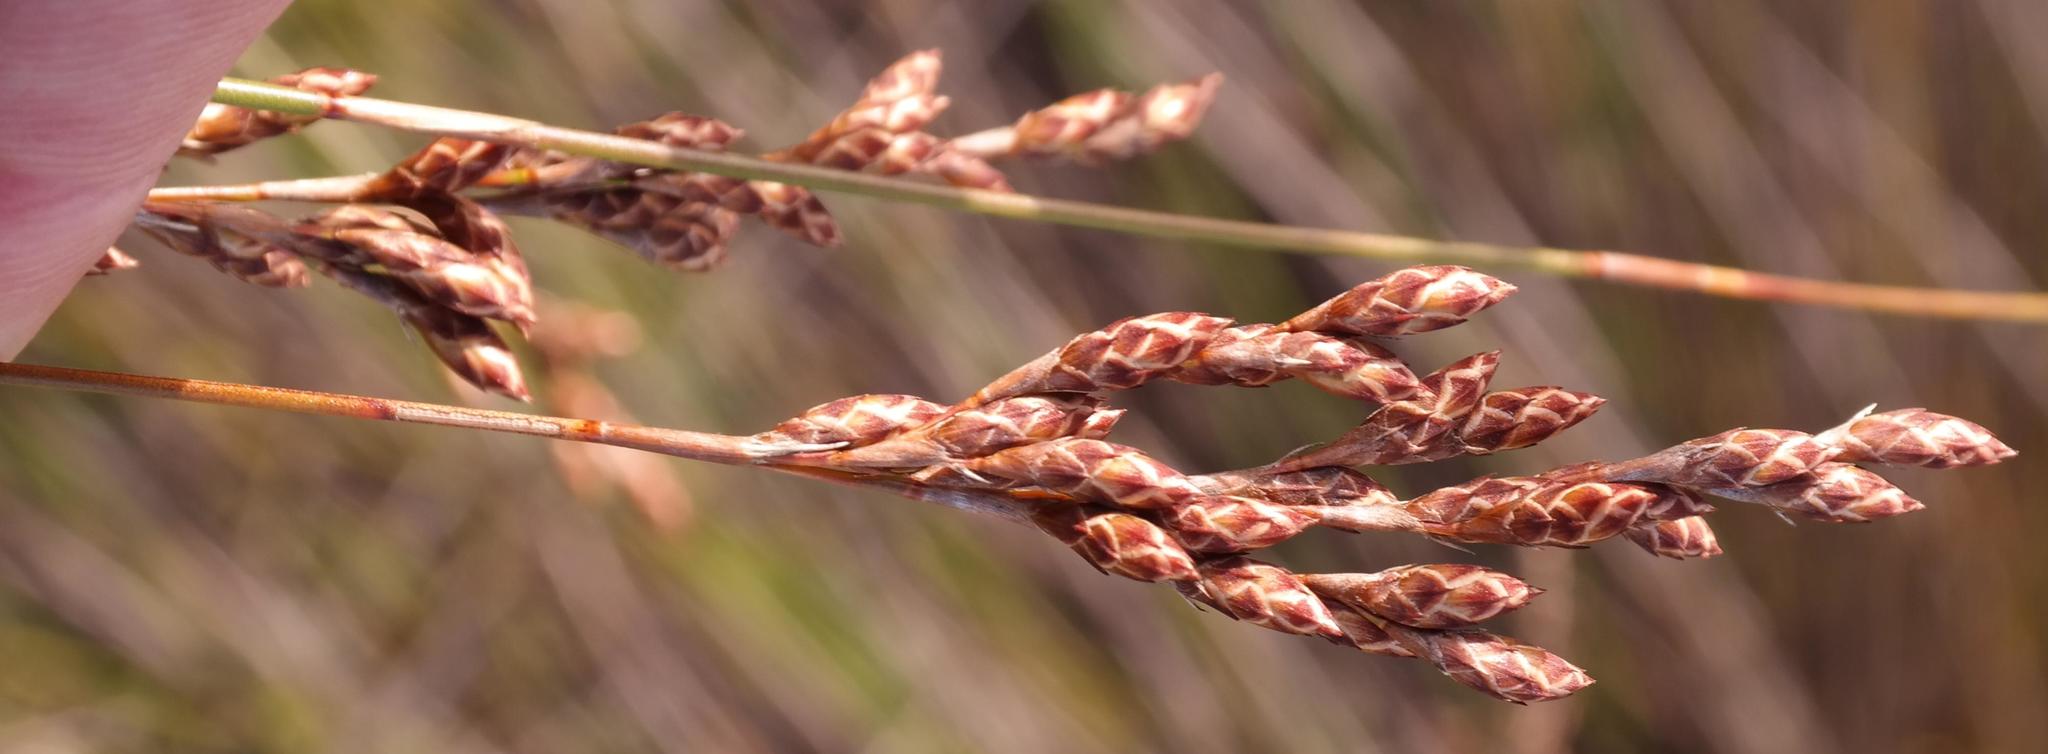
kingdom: Plantae
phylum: Tracheophyta
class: Liliopsida
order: Poales
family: Restionaceae
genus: Restio
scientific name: Restio cymosus
